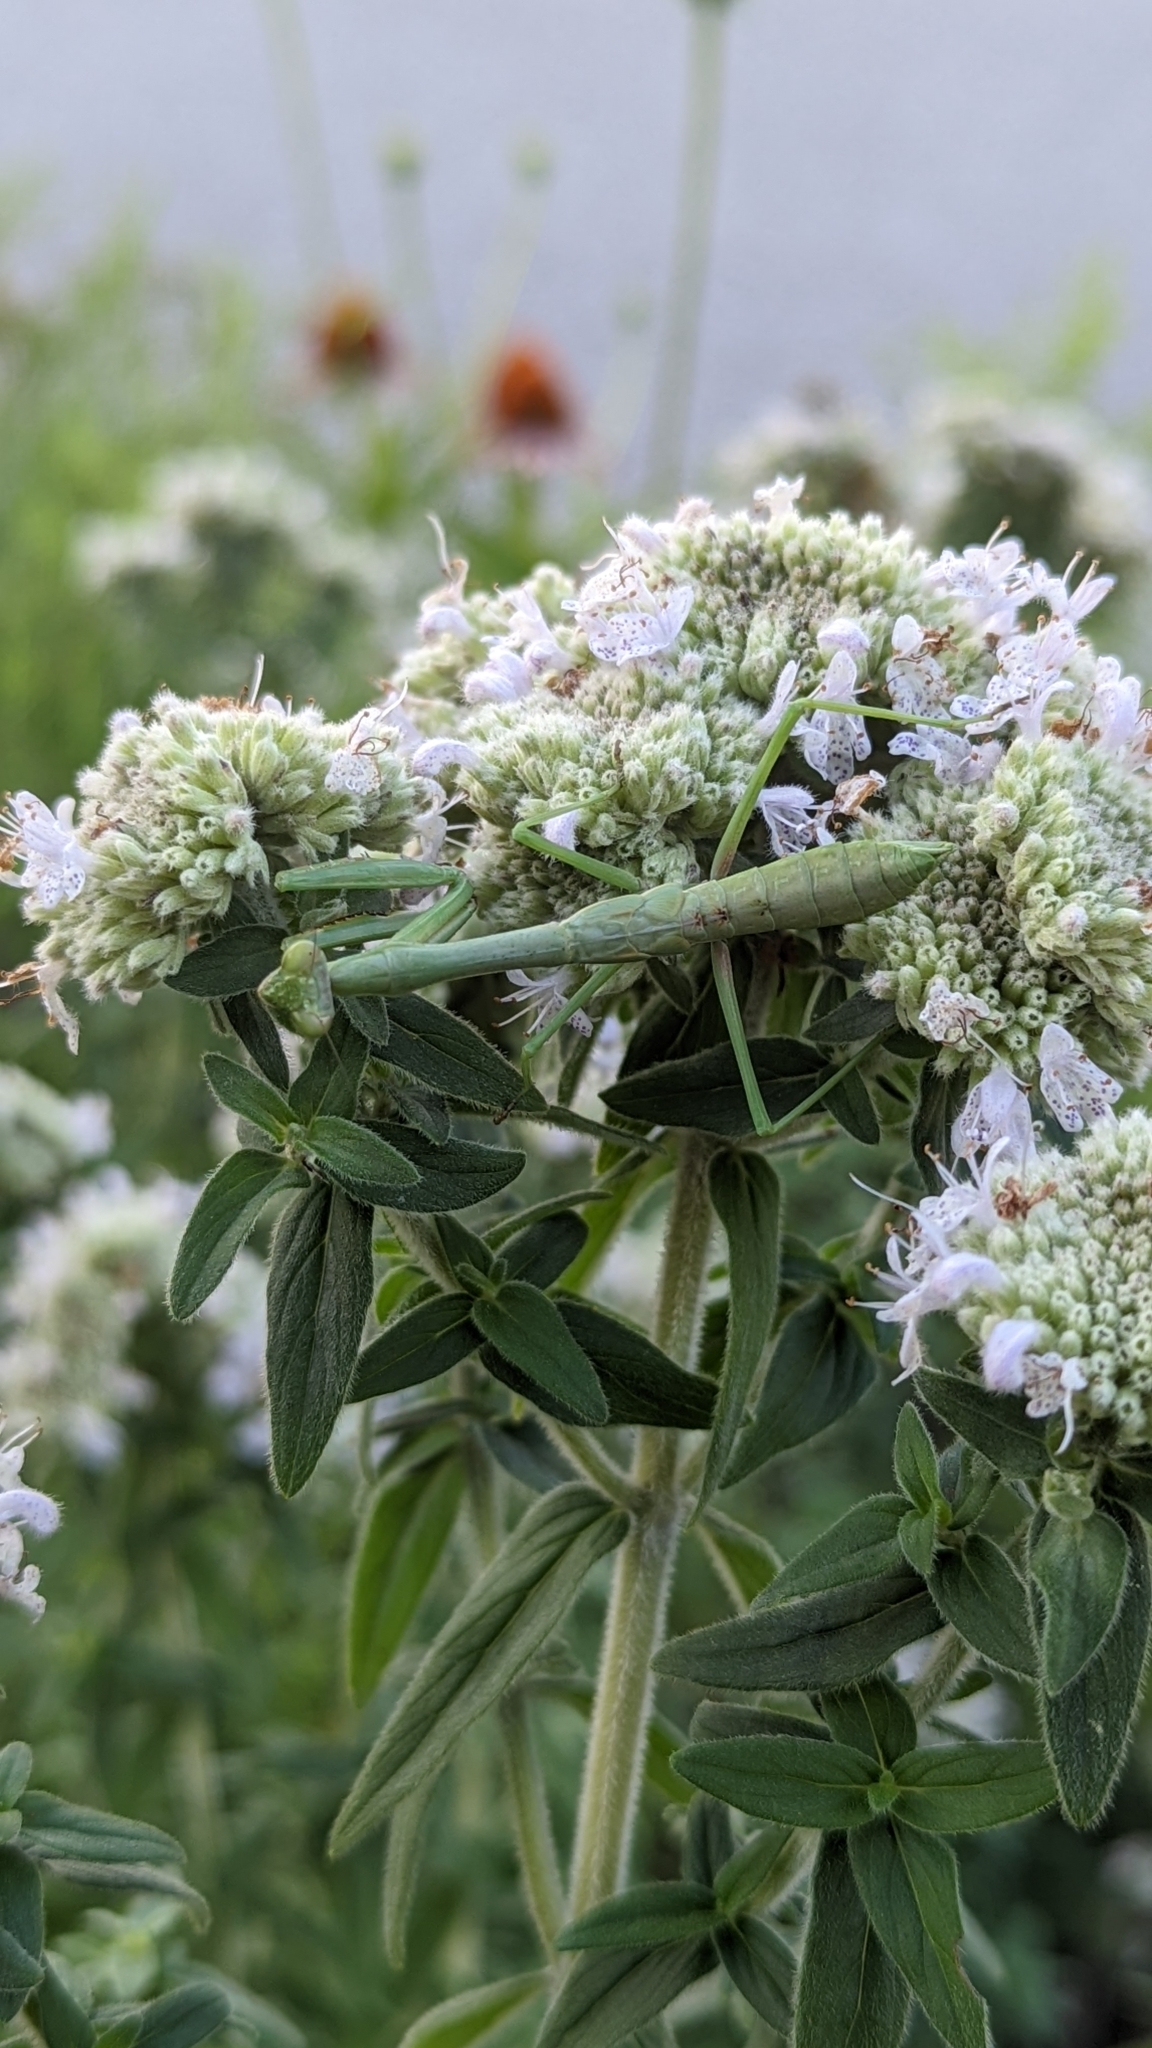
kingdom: Animalia
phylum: Arthropoda
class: Insecta
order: Mantodea
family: Mantidae
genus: Stagmomantis
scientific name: Stagmomantis carolina
